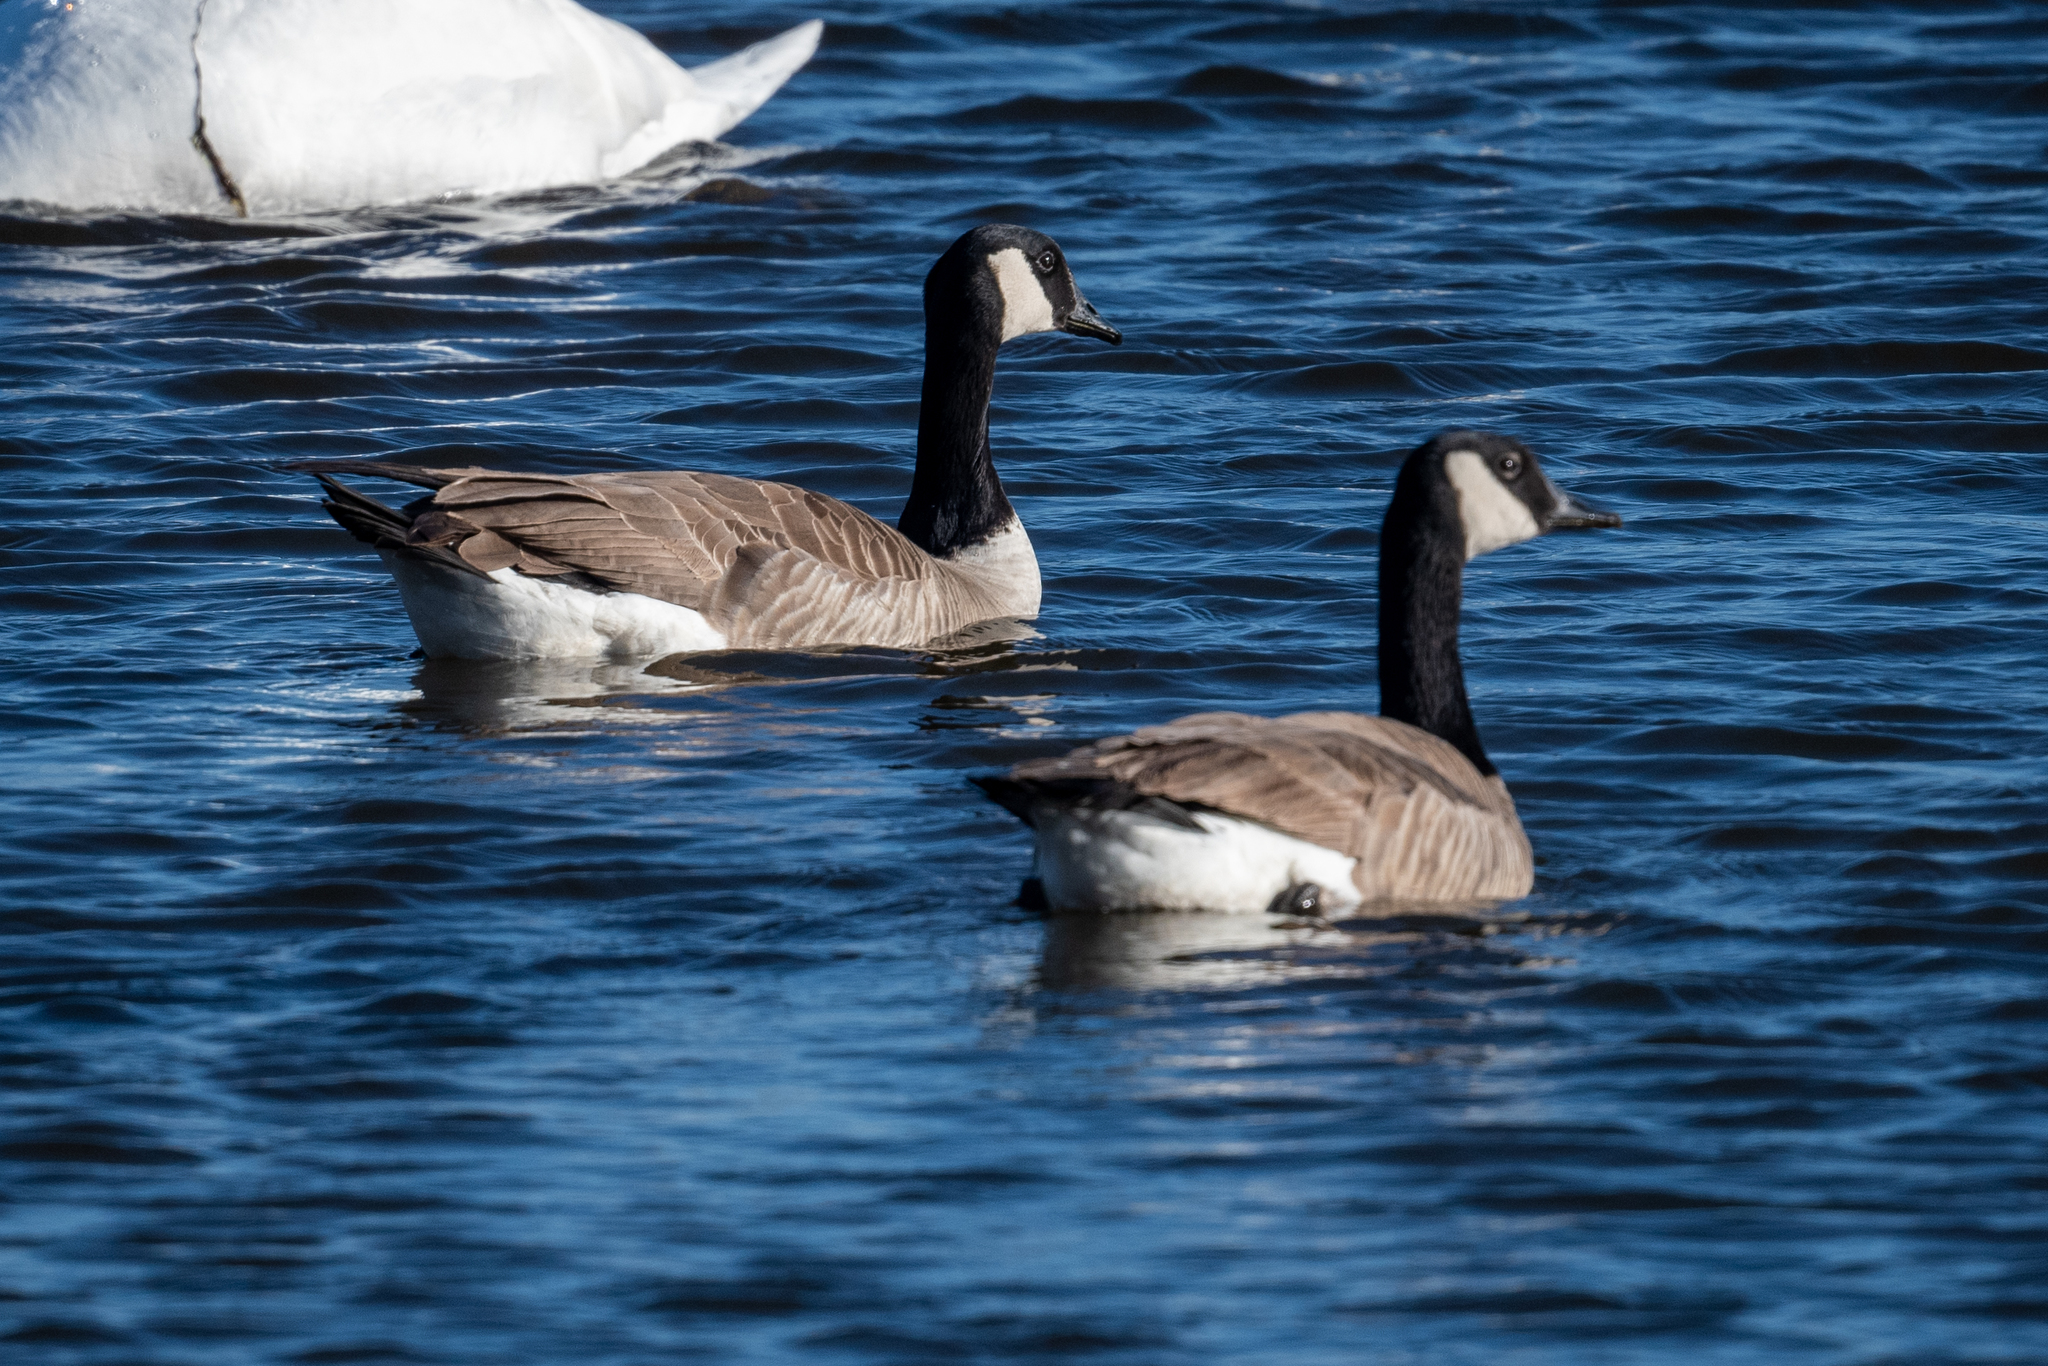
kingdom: Animalia
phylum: Chordata
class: Aves
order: Anseriformes
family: Anatidae
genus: Branta
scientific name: Branta canadensis
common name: Canada goose
